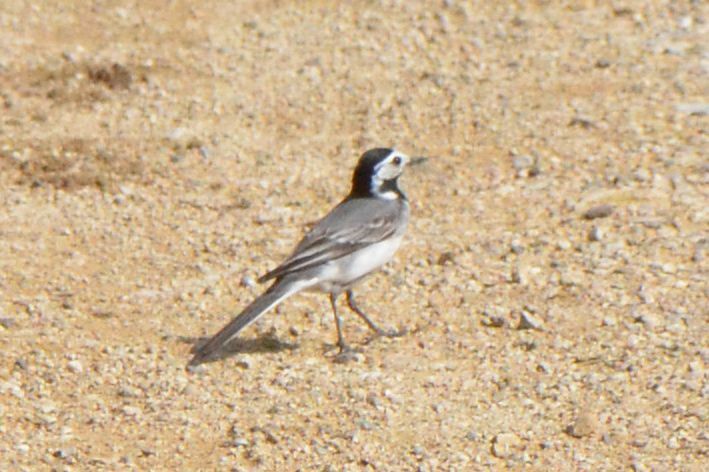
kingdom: Animalia
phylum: Chordata
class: Aves
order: Passeriformes
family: Motacillidae
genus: Motacilla
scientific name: Motacilla alba
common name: White wagtail
